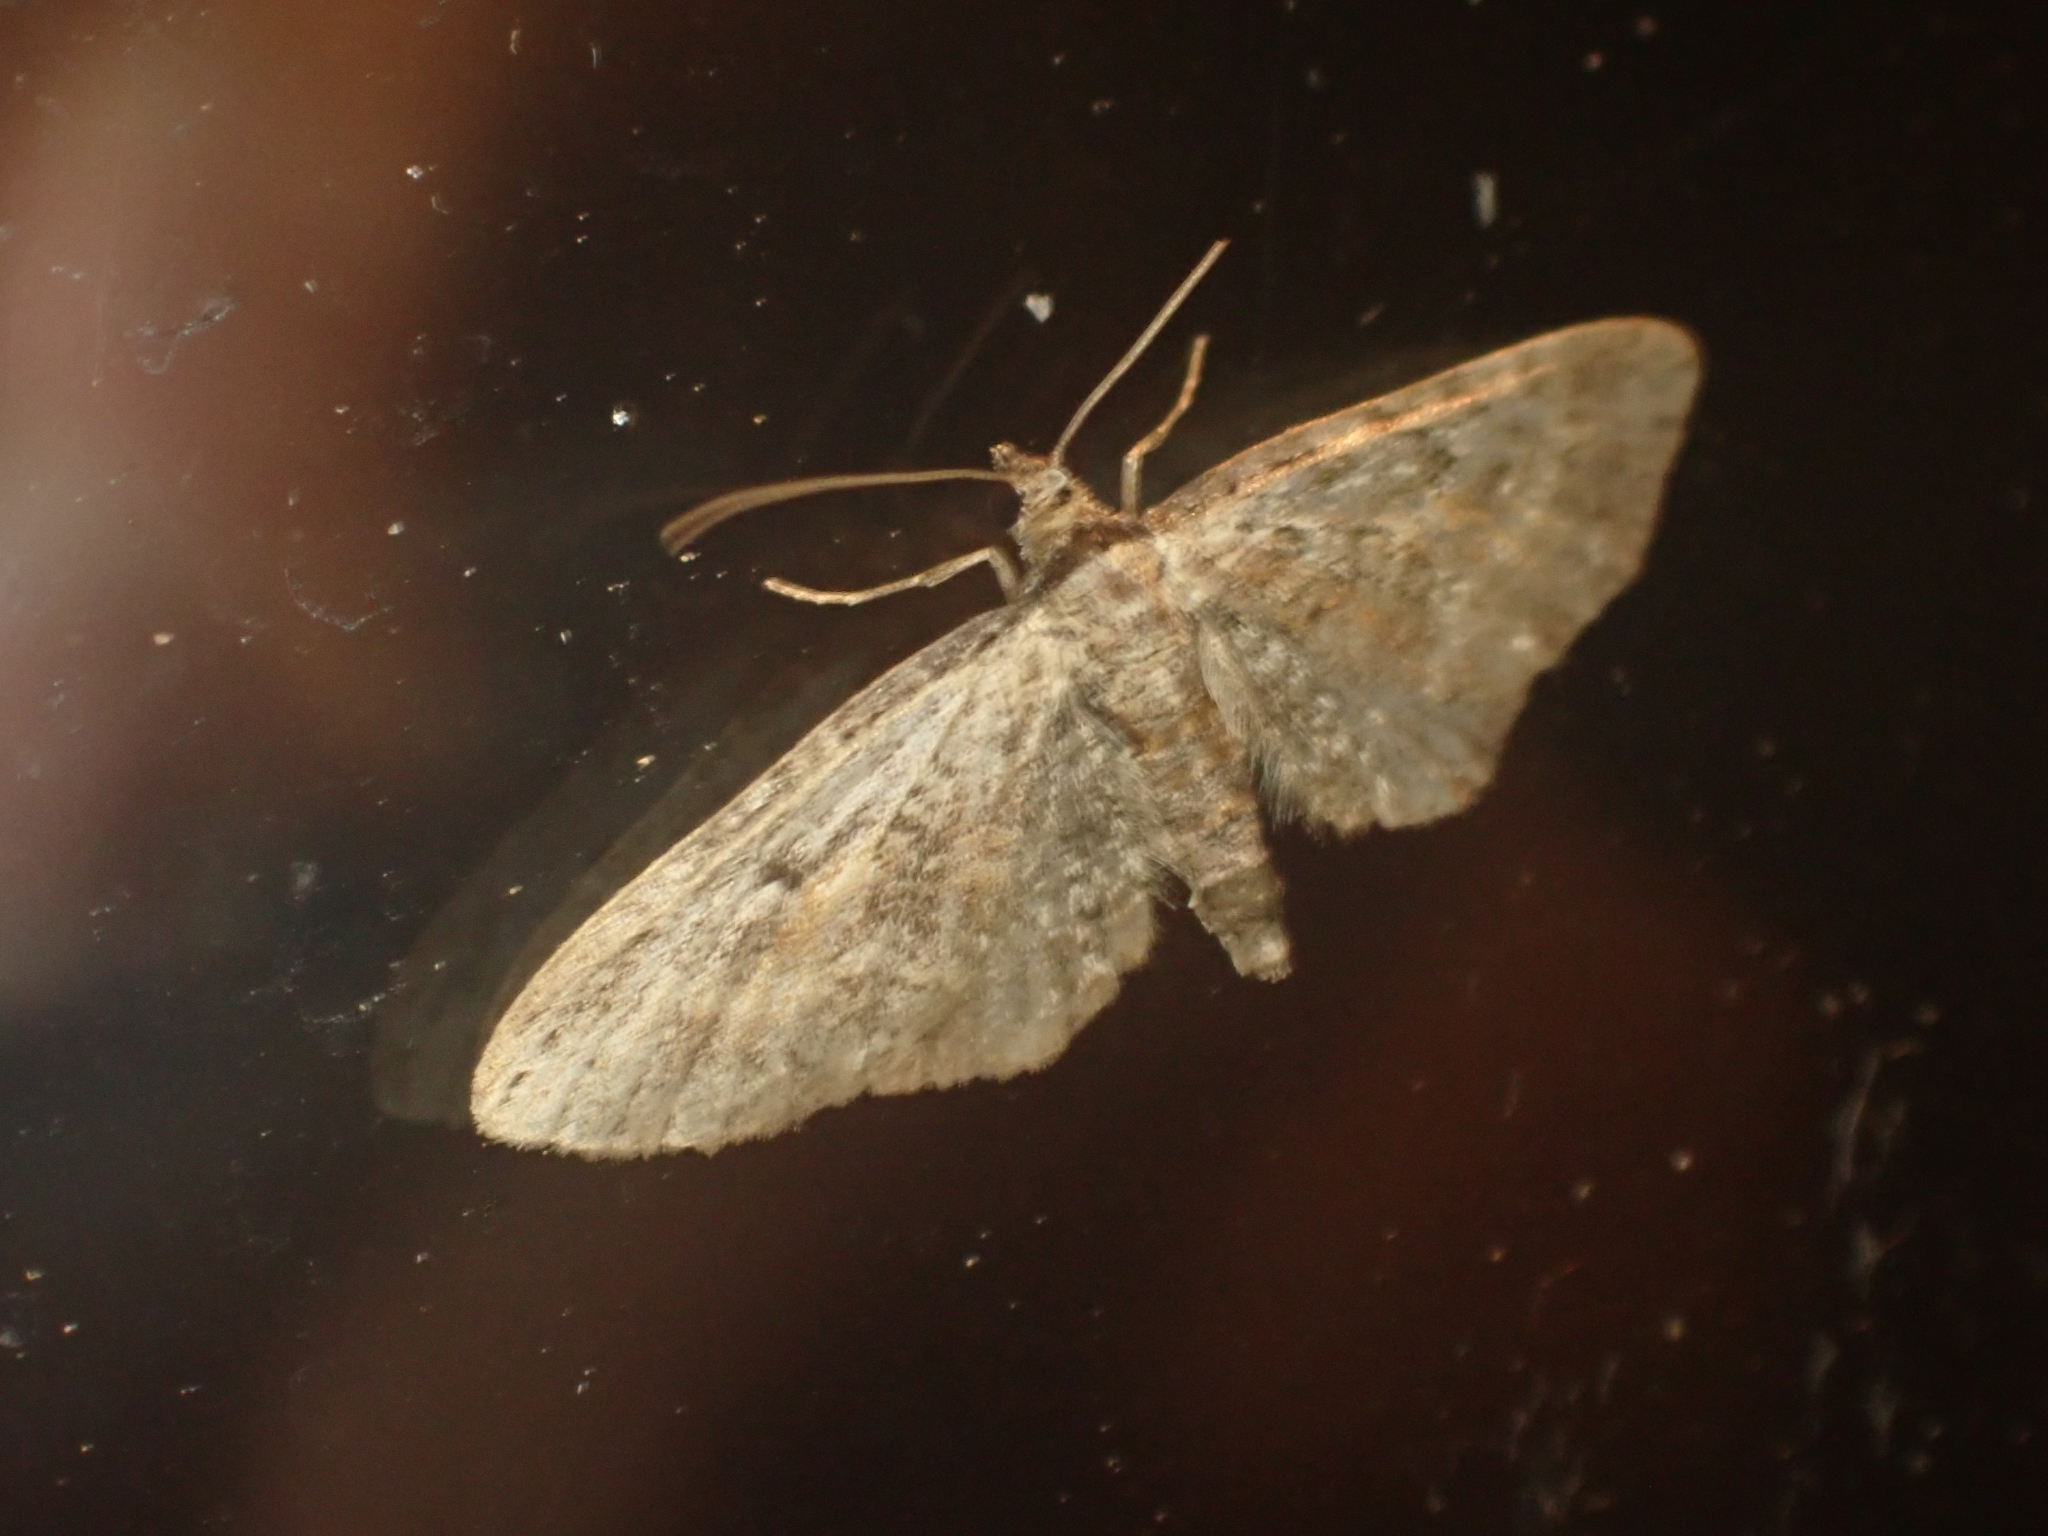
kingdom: Animalia
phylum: Arthropoda
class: Insecta
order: Lepidoptera
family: Geometridae
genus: Eupithecia
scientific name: Eupithecia icterata
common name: Tawny speckled pug
